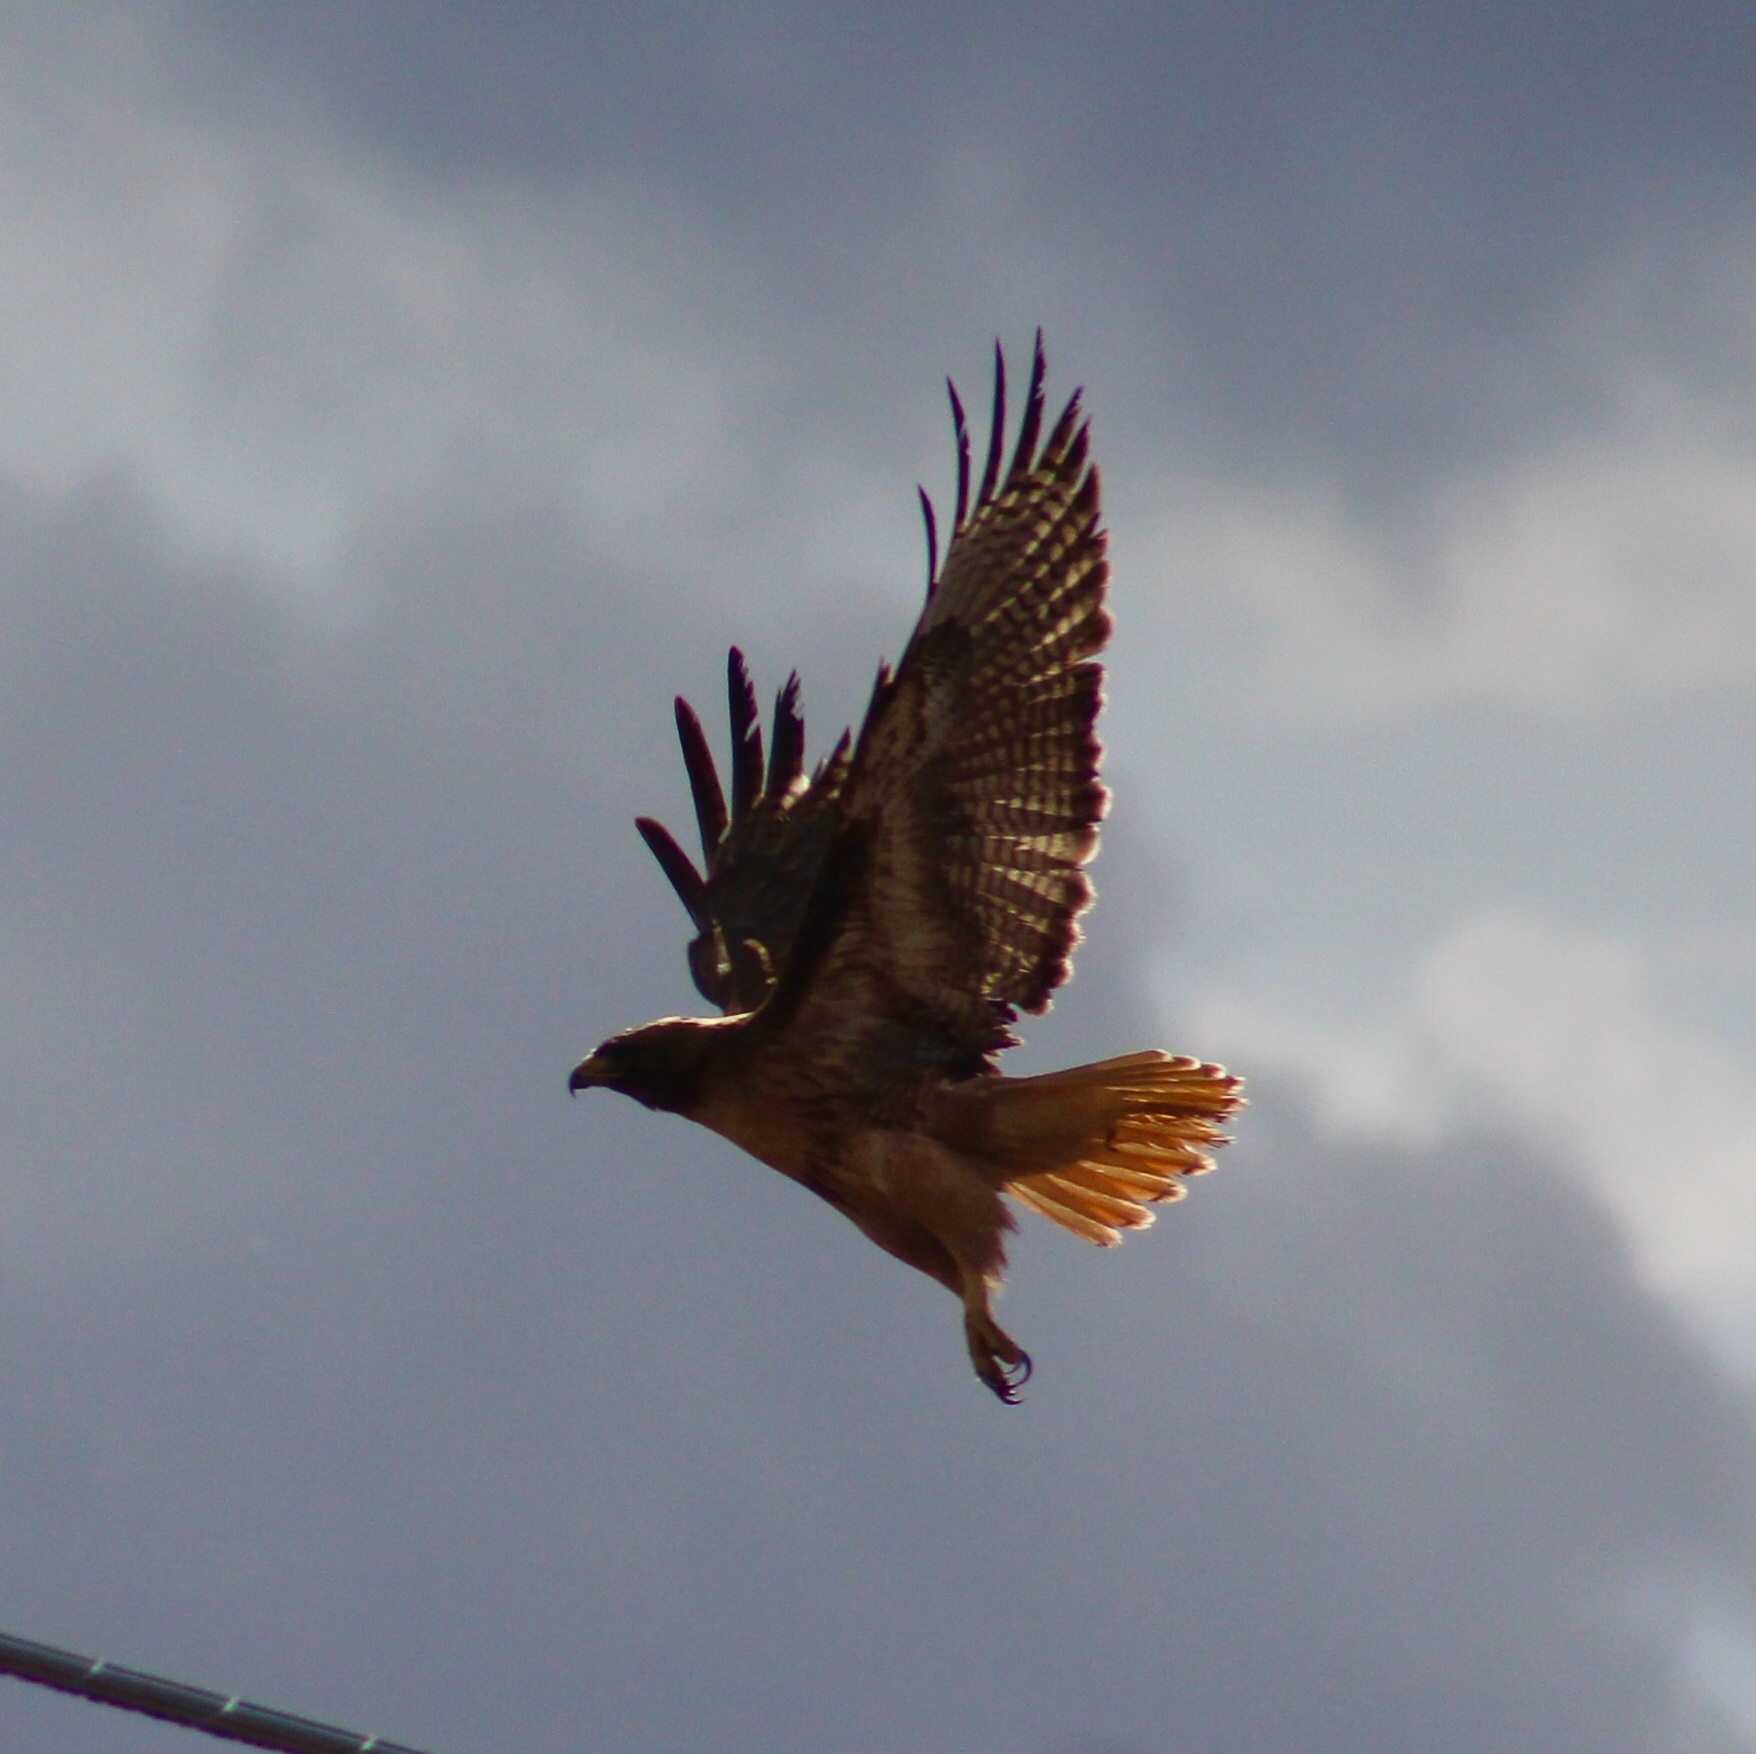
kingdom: Animalia
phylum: Chordata
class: Aves
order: Accipitriformes
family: Accipitridae
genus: Buteo
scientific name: Buteo jamaicensis
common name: Red-tailed hawk
